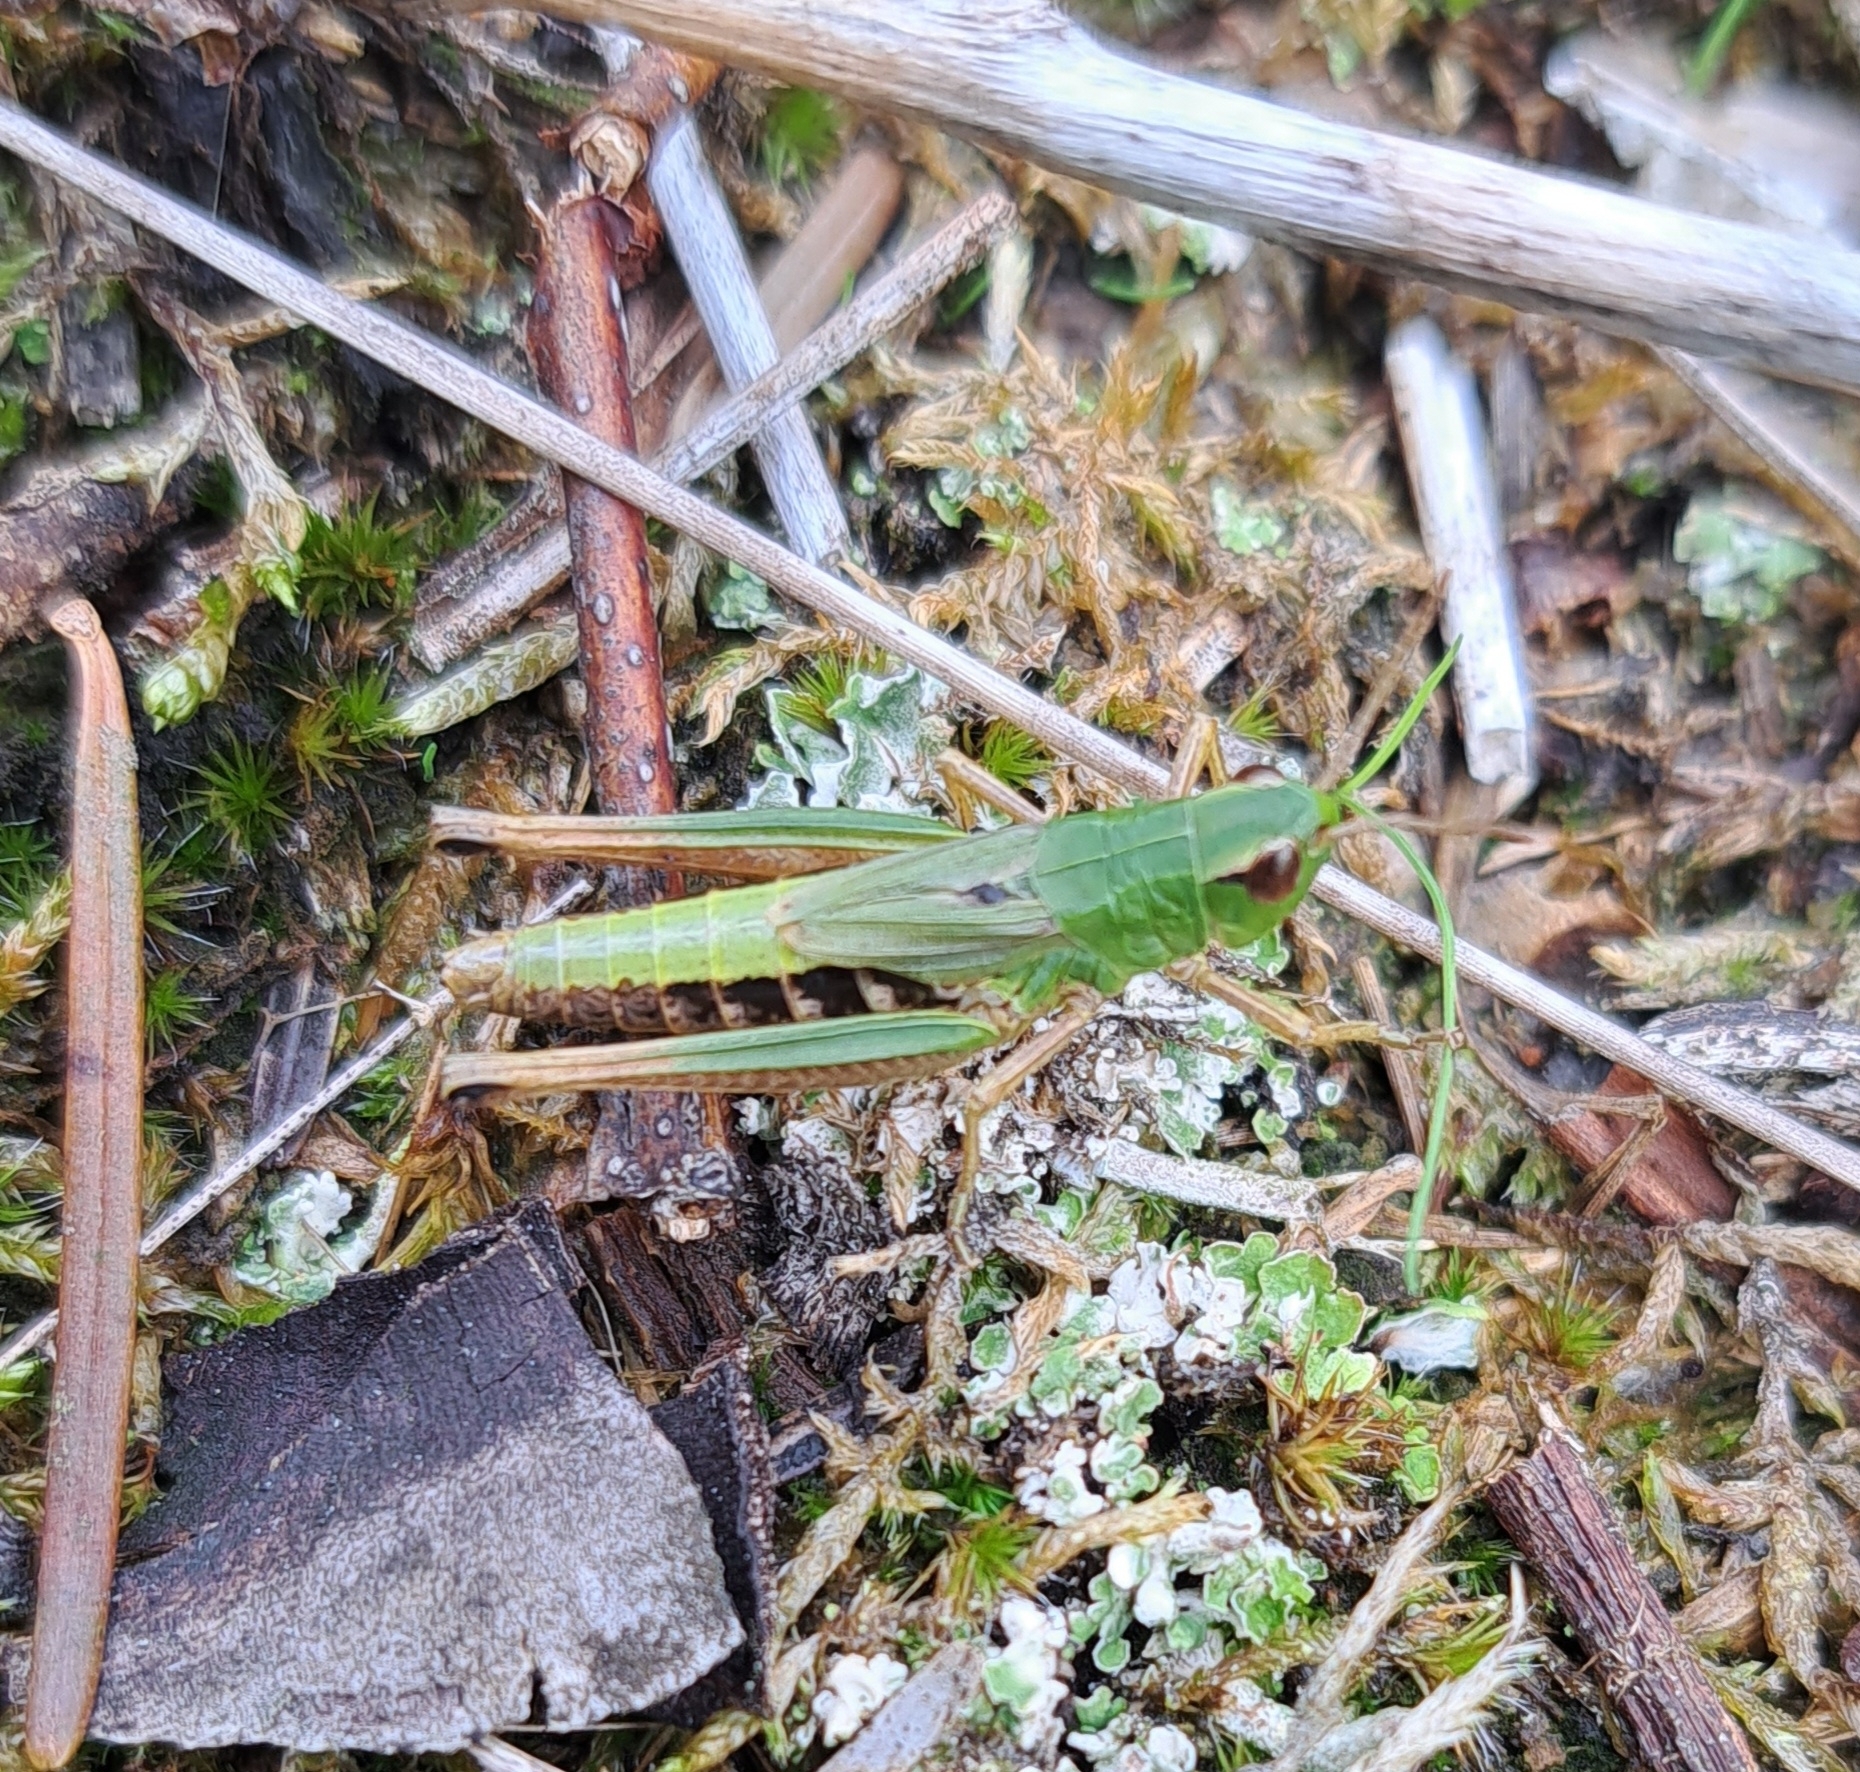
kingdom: Animalia
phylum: Arthropoda
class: Insecta
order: Orthoptera
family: Acrididae
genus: Pseudochorthippus
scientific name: Pseudochorthippus parallelus
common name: Meadow grasshopper
